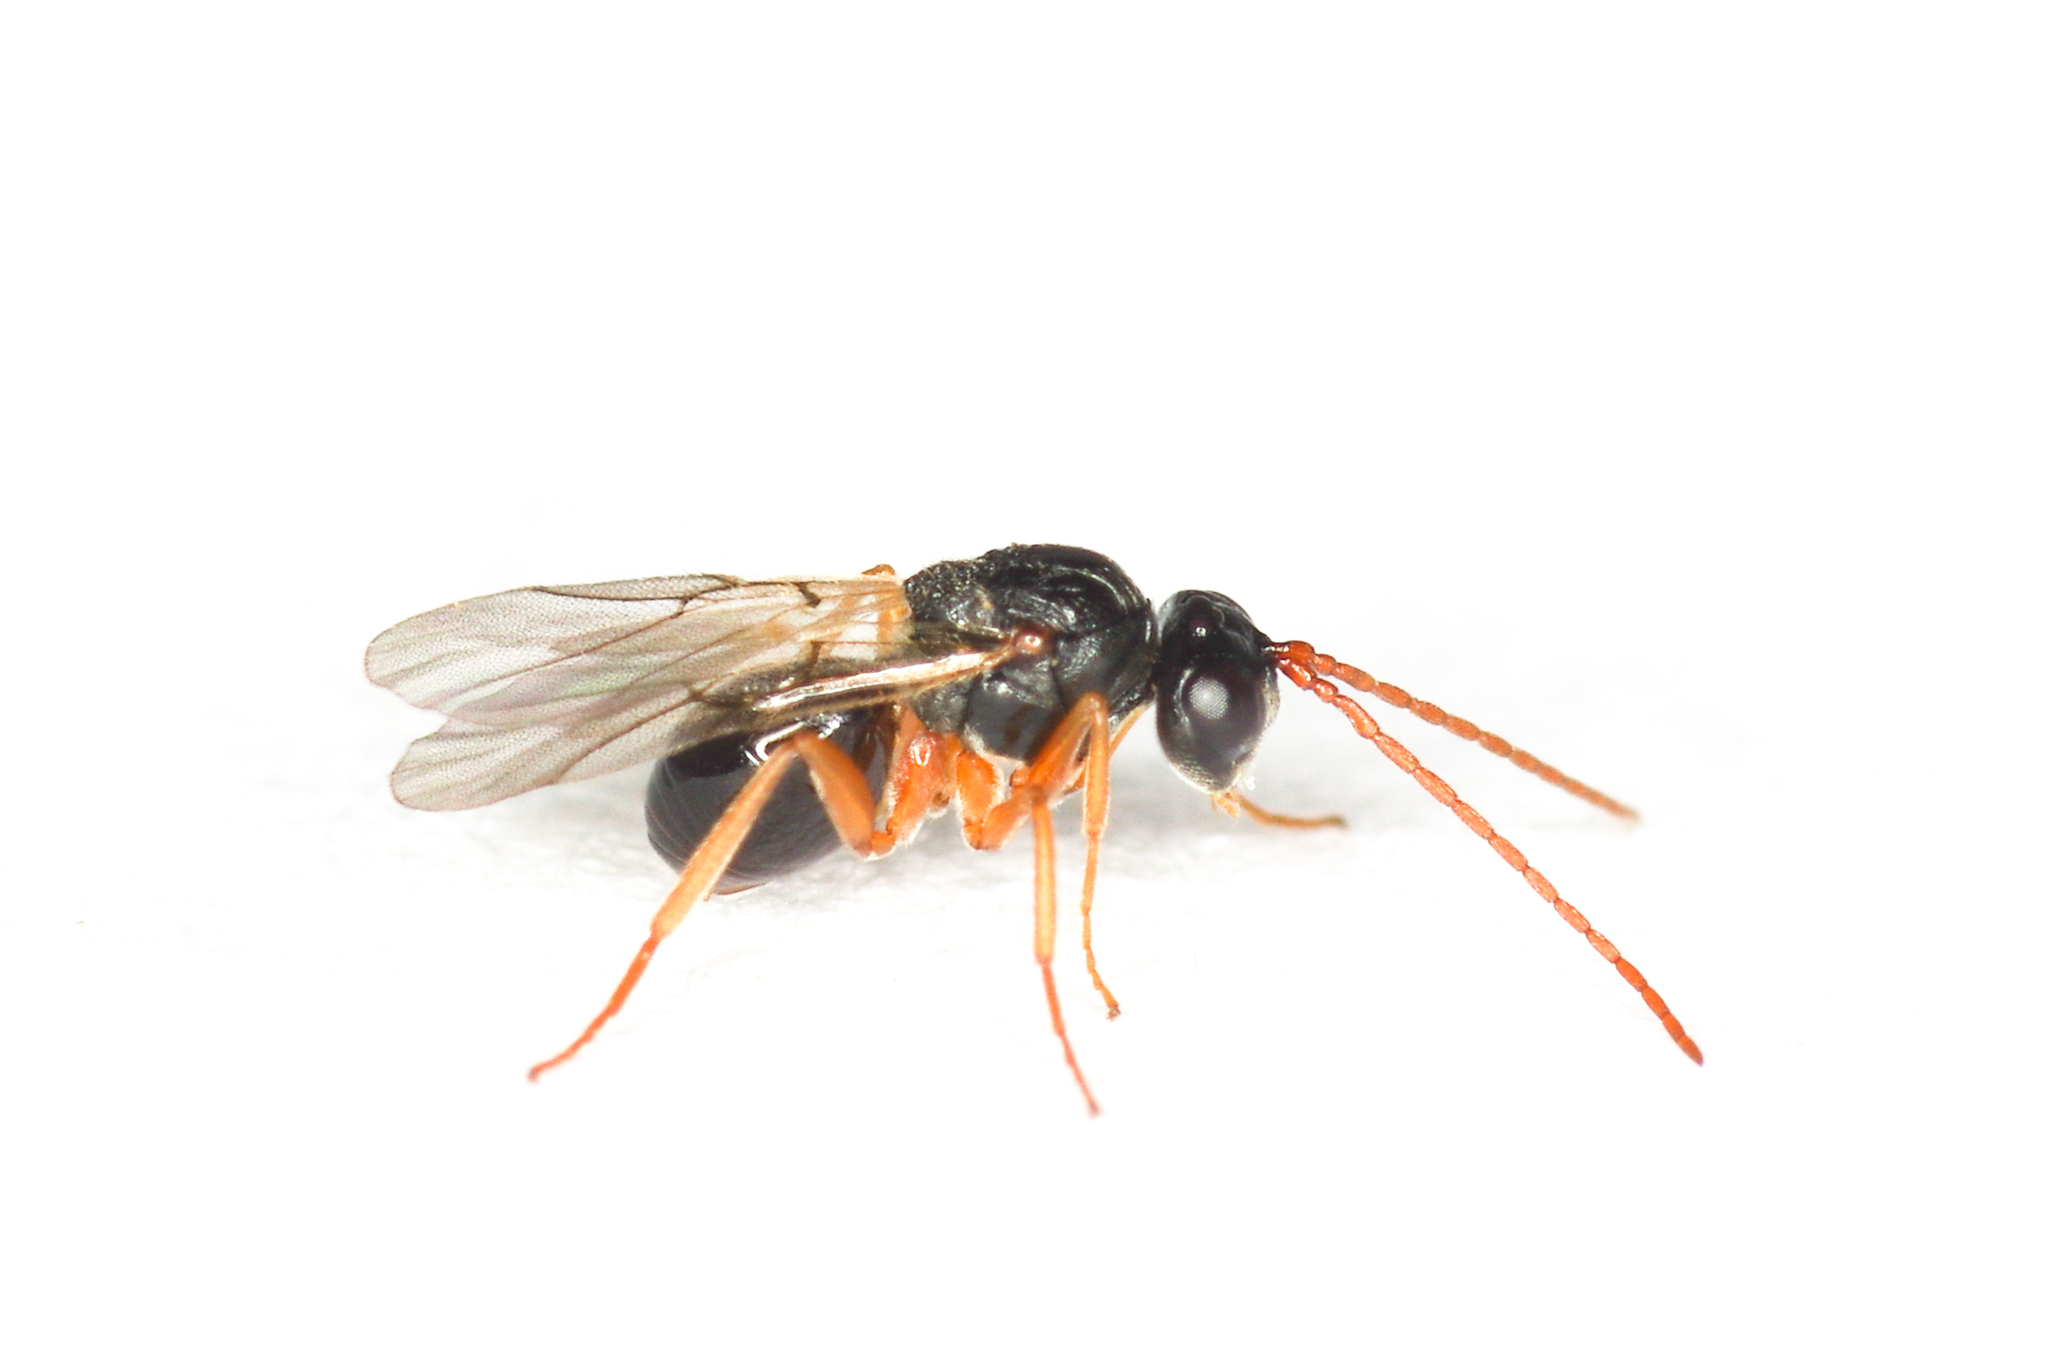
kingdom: Animalia
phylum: Arthropoda
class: Insecta
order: Hymenoptera
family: Cynipidae
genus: Synophromorpha
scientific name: Synophromorpha sylvestris
